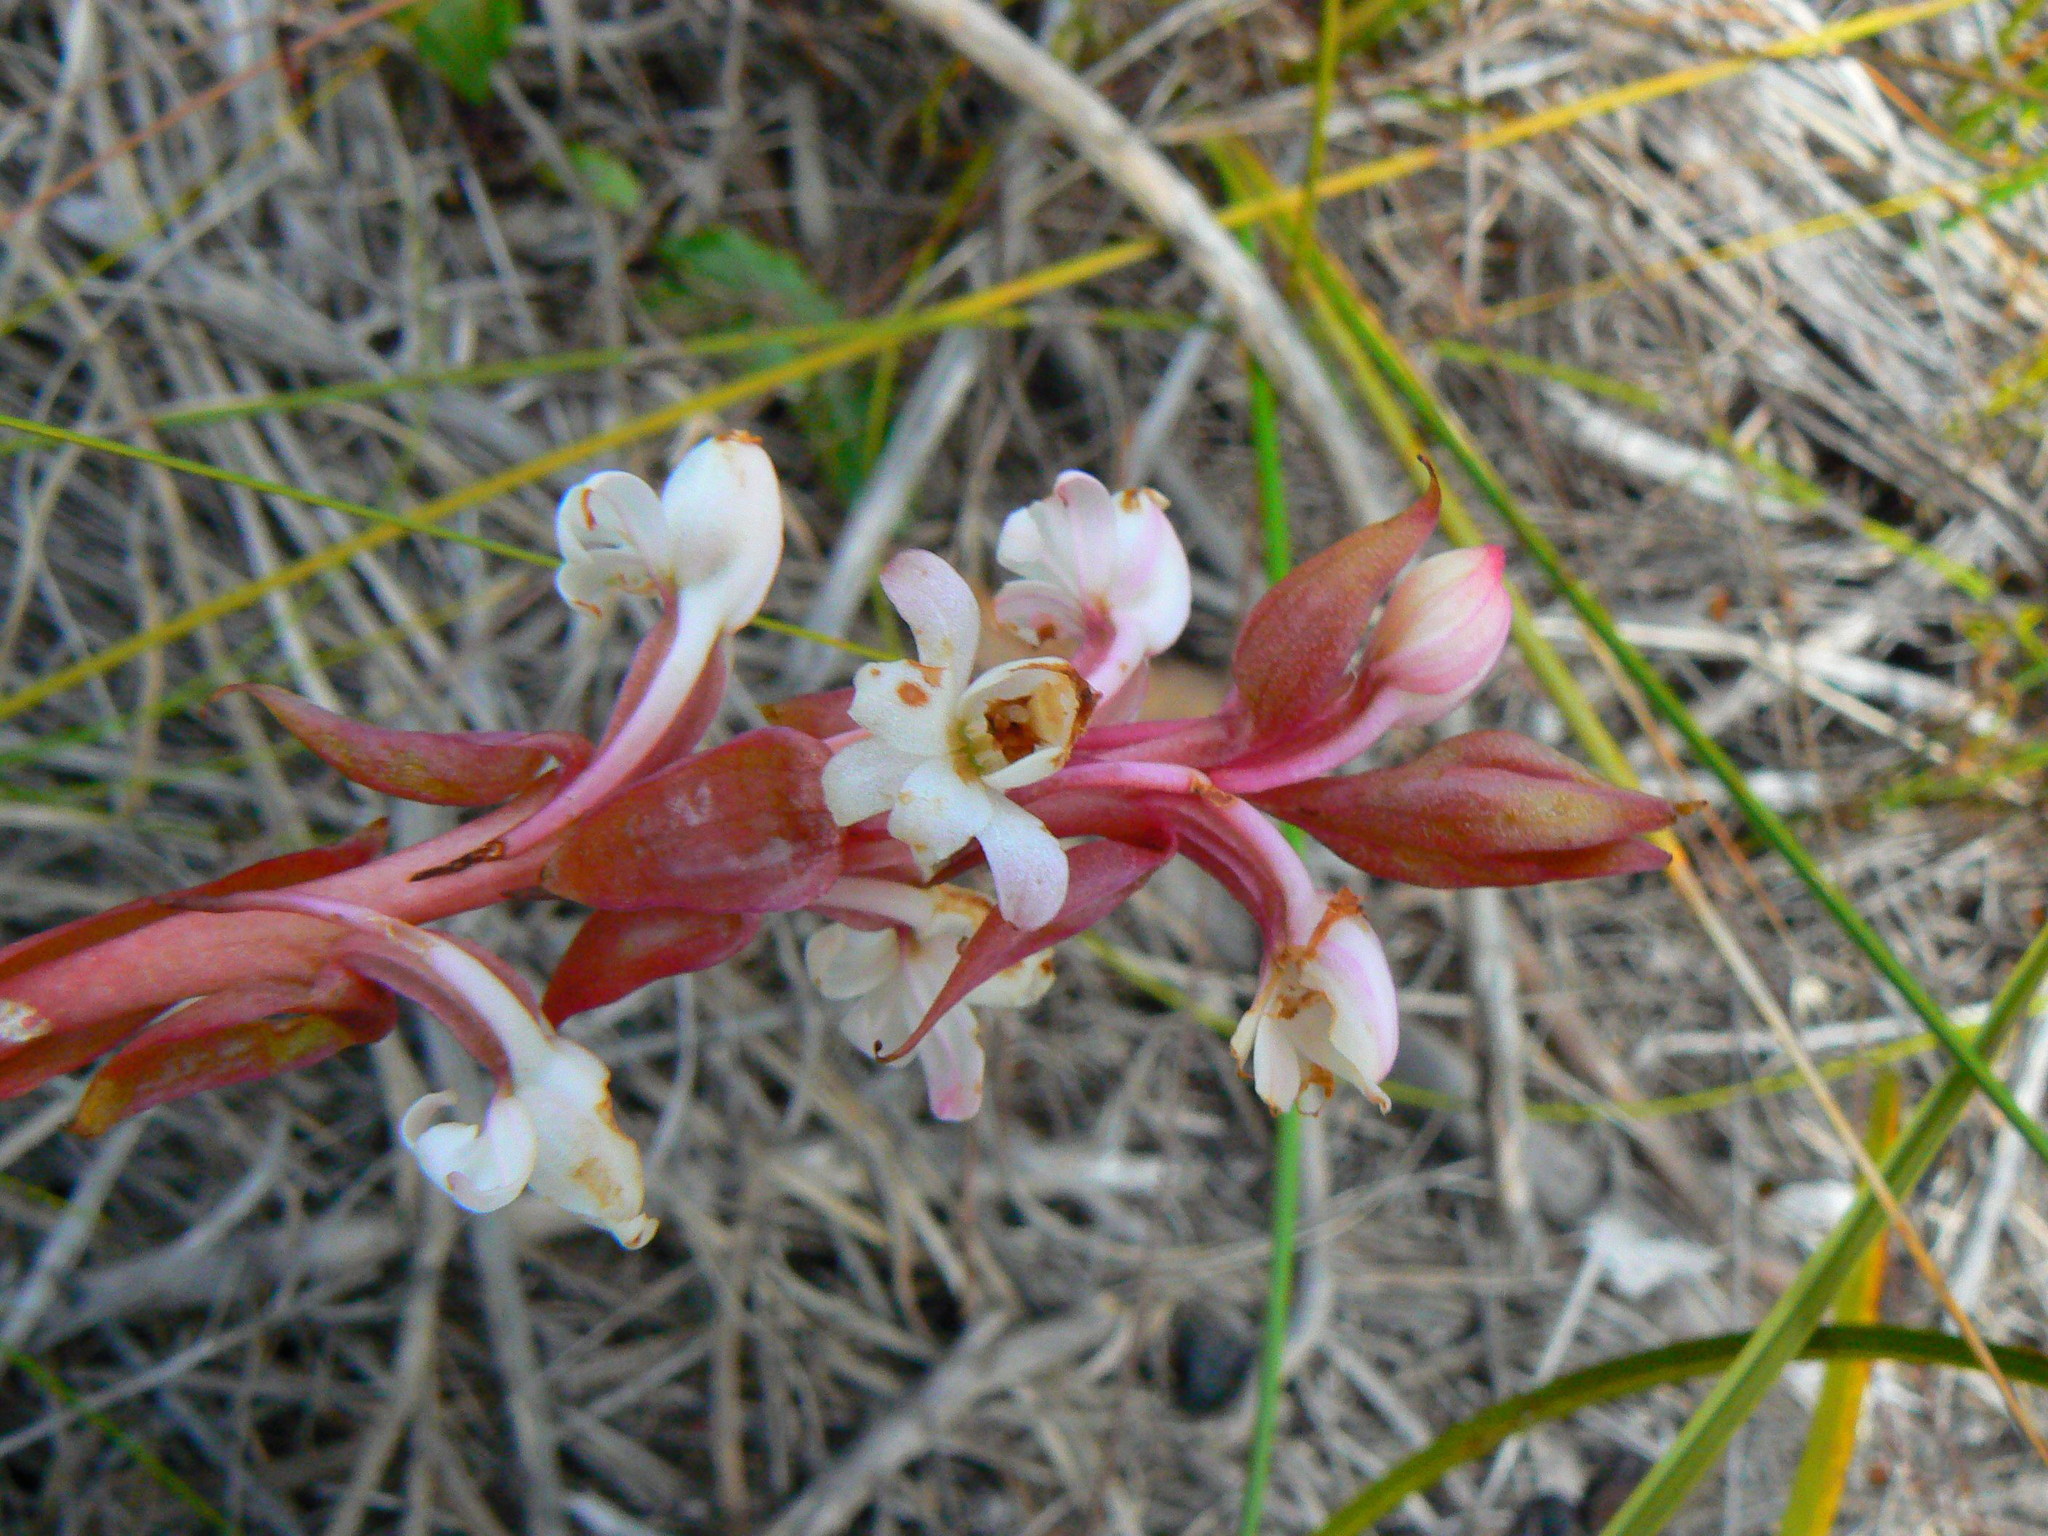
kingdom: Plantae
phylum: Tracheophyta
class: Liliopsida
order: Asparagales
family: Orchidaceae
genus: Satyrium
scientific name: Satyrium acuminatum
